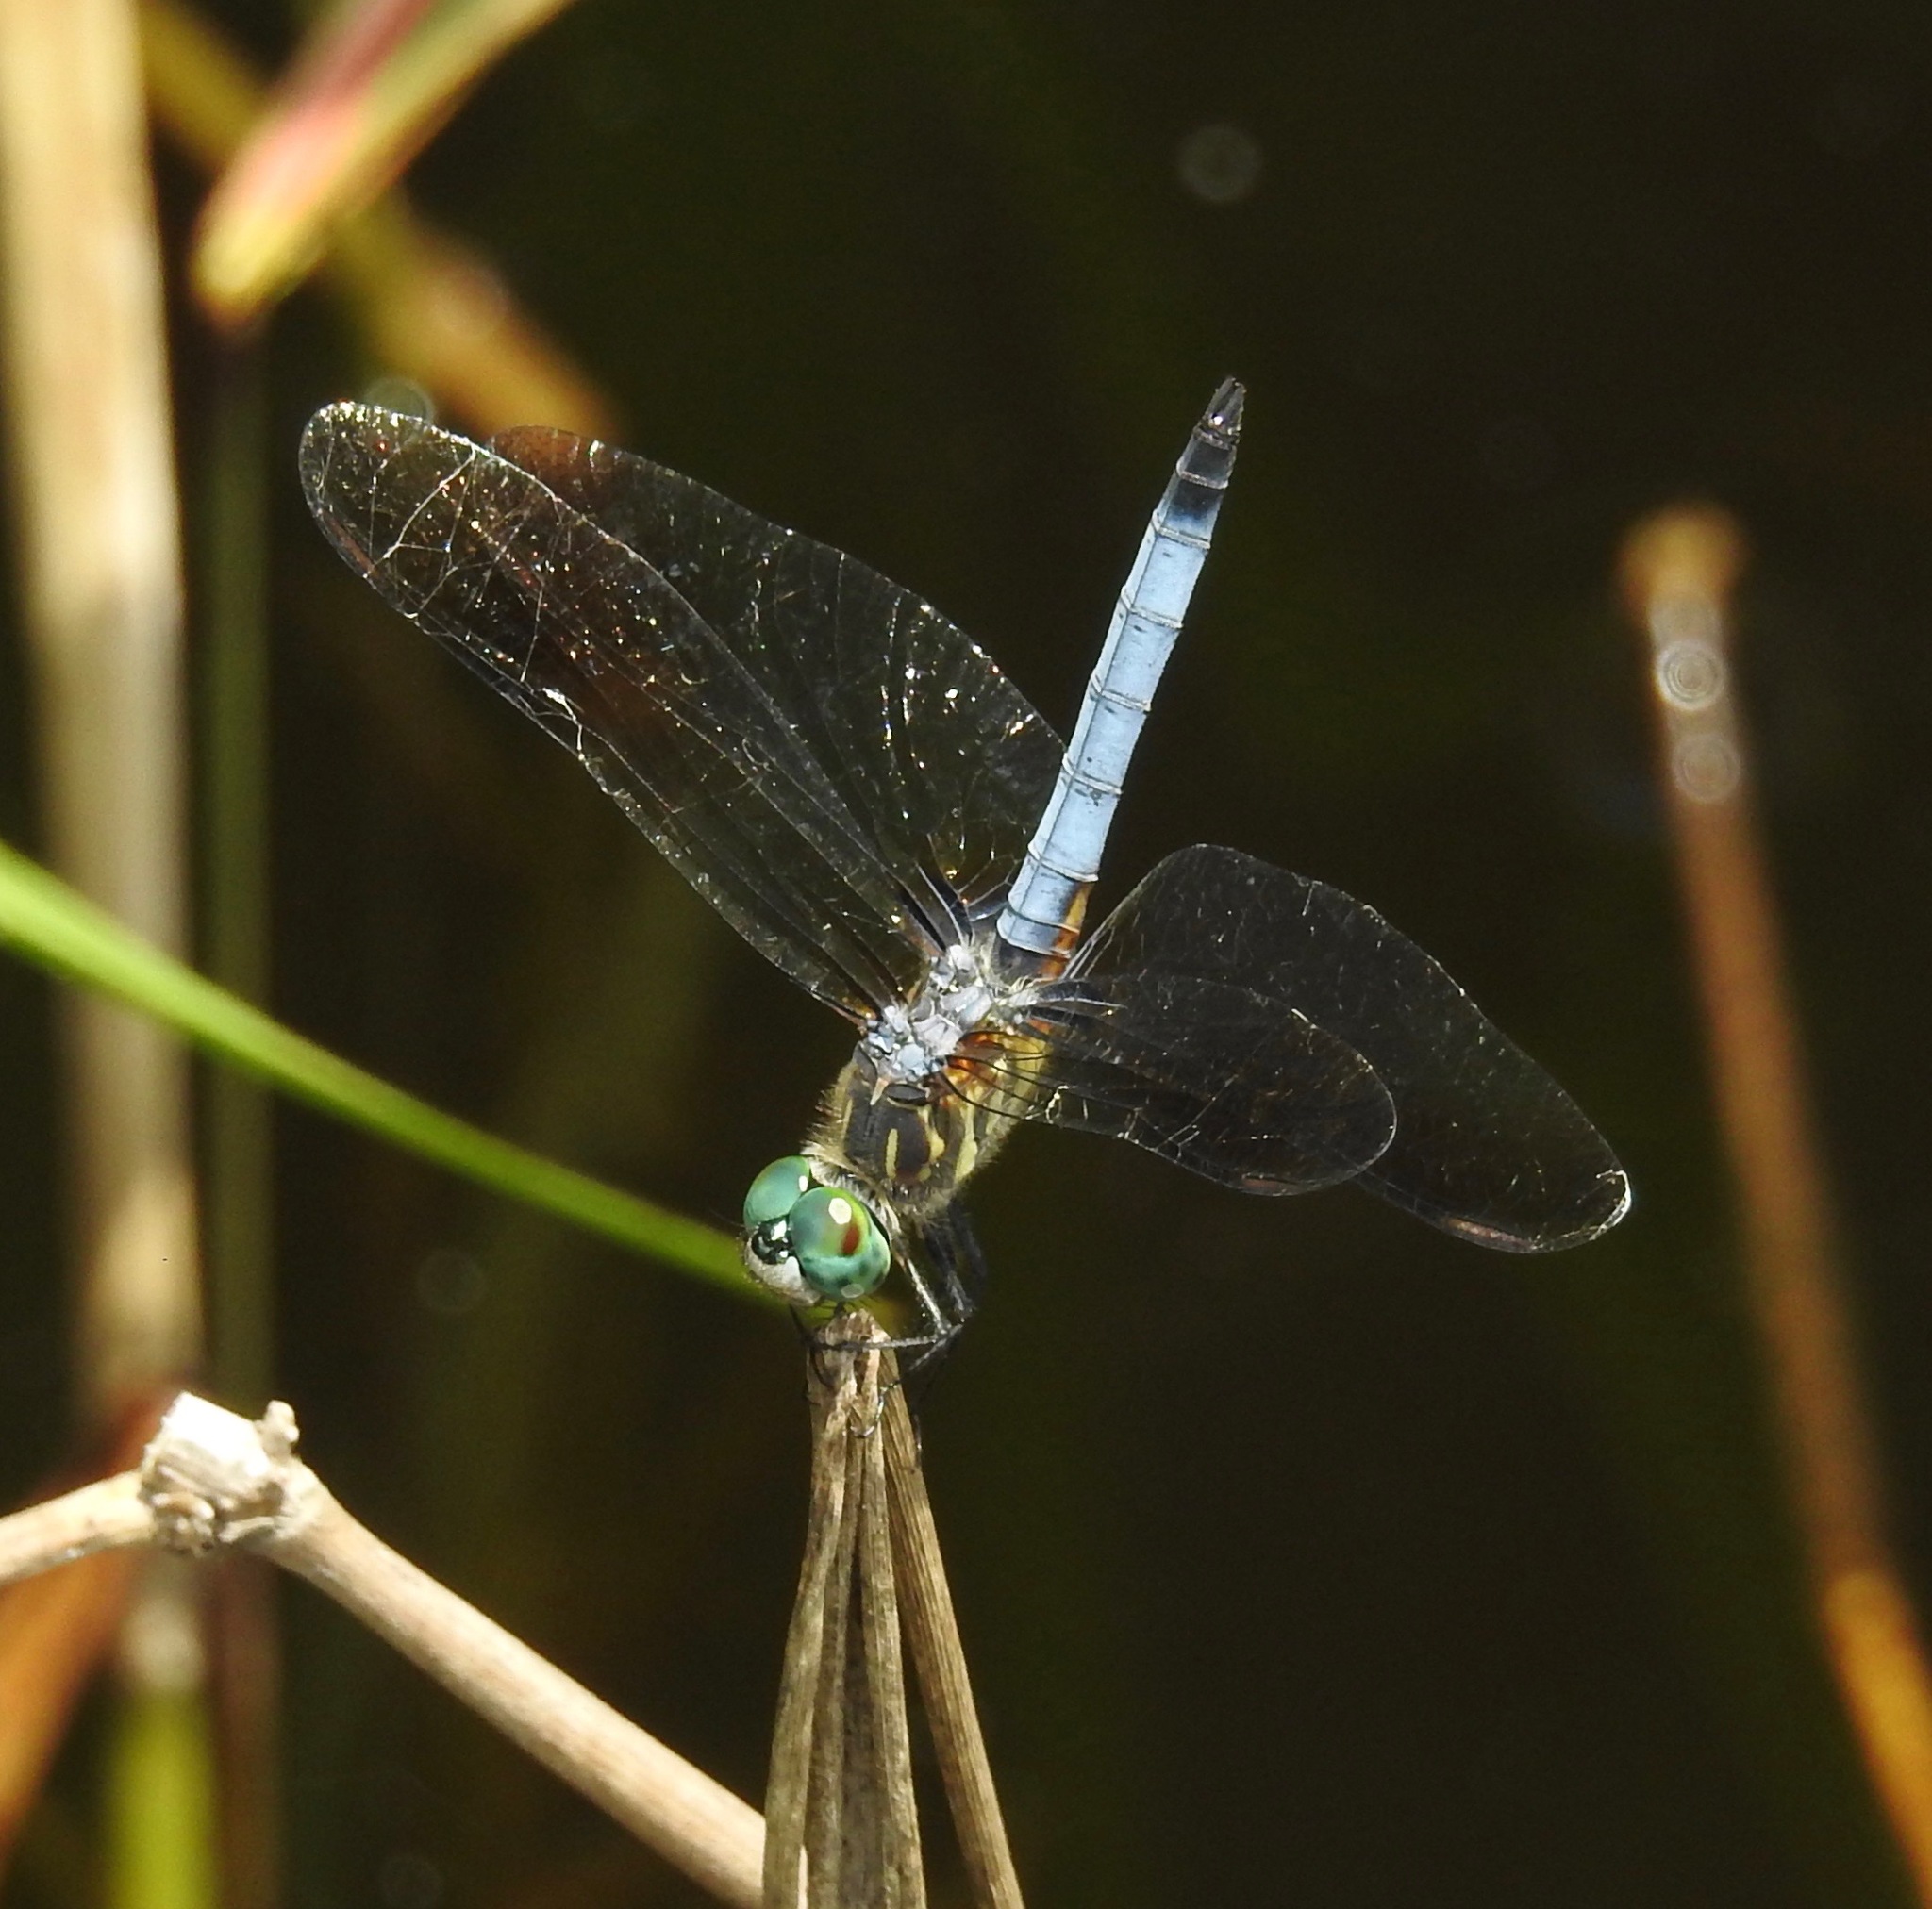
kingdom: Animalia
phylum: Arthropoda
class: Insecta
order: Odonata
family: Libellulidae
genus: Pachydiplax
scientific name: Pachydiplax longipennis
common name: Blue dasher
